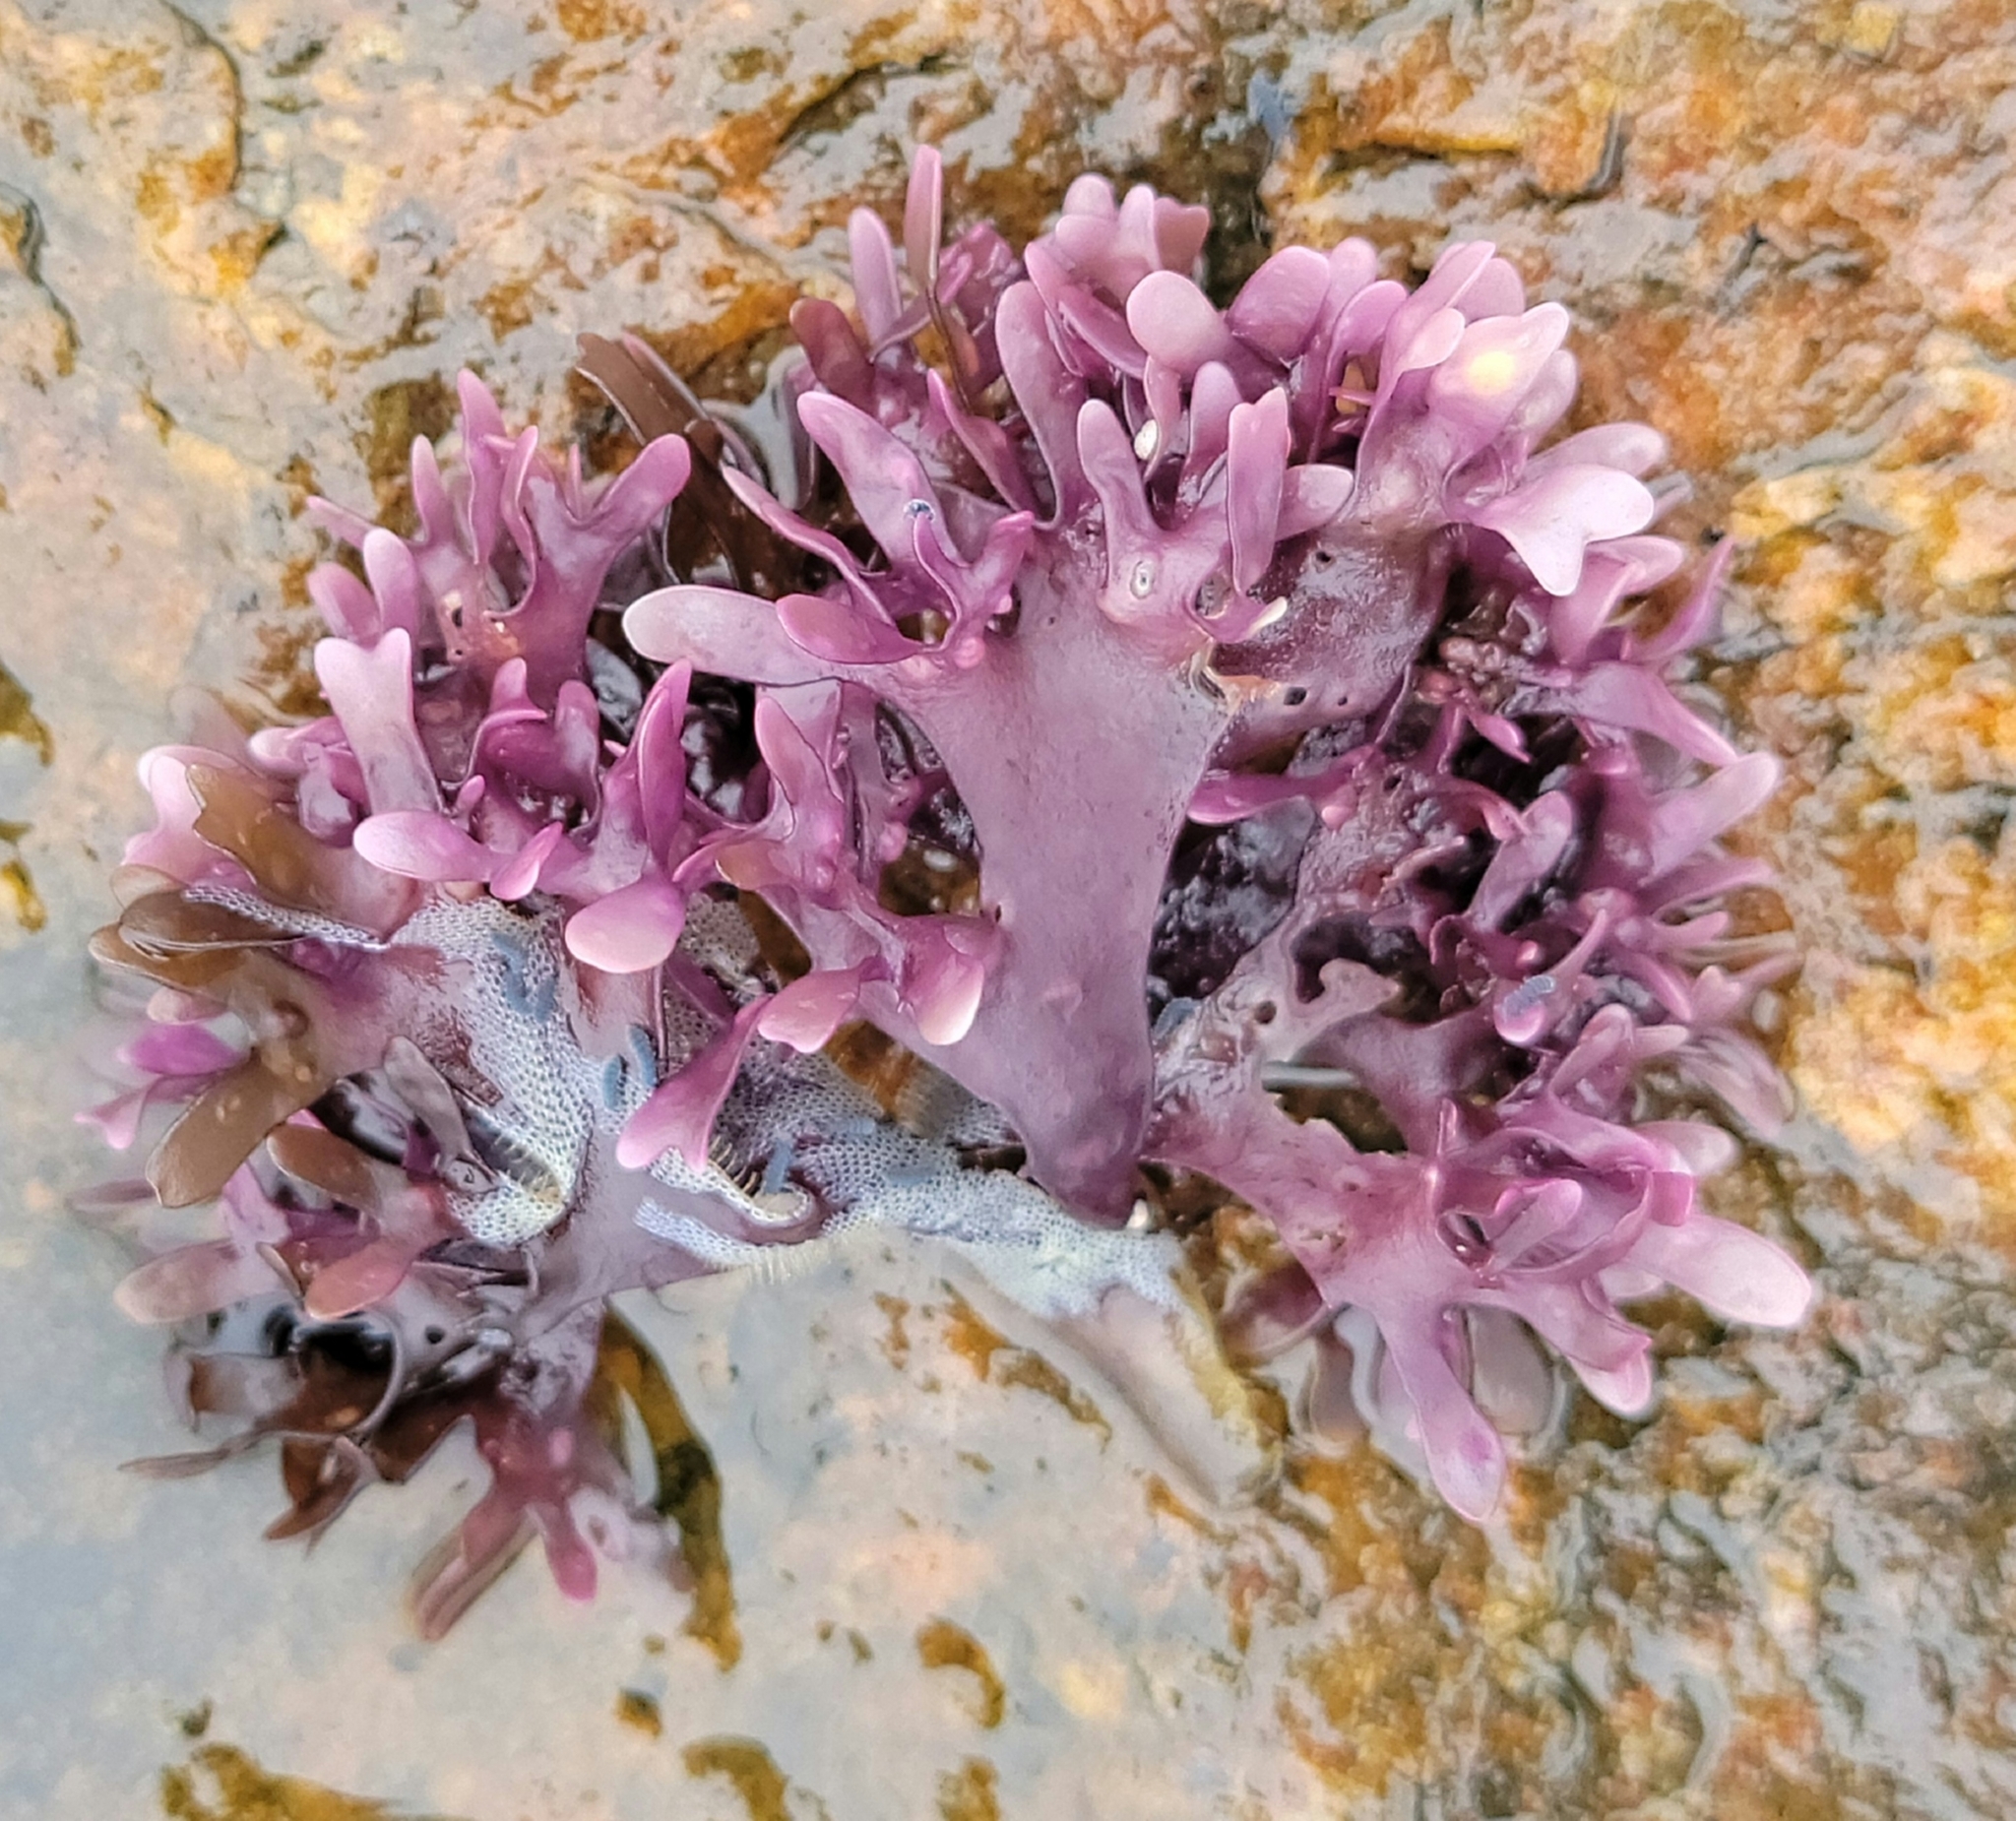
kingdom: Plantae
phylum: Rhodophyta
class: Florideophyceae
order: Gigartinales
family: Gigartinaceae
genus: Chondrus
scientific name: Chondrus crispus
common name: Carrageen
